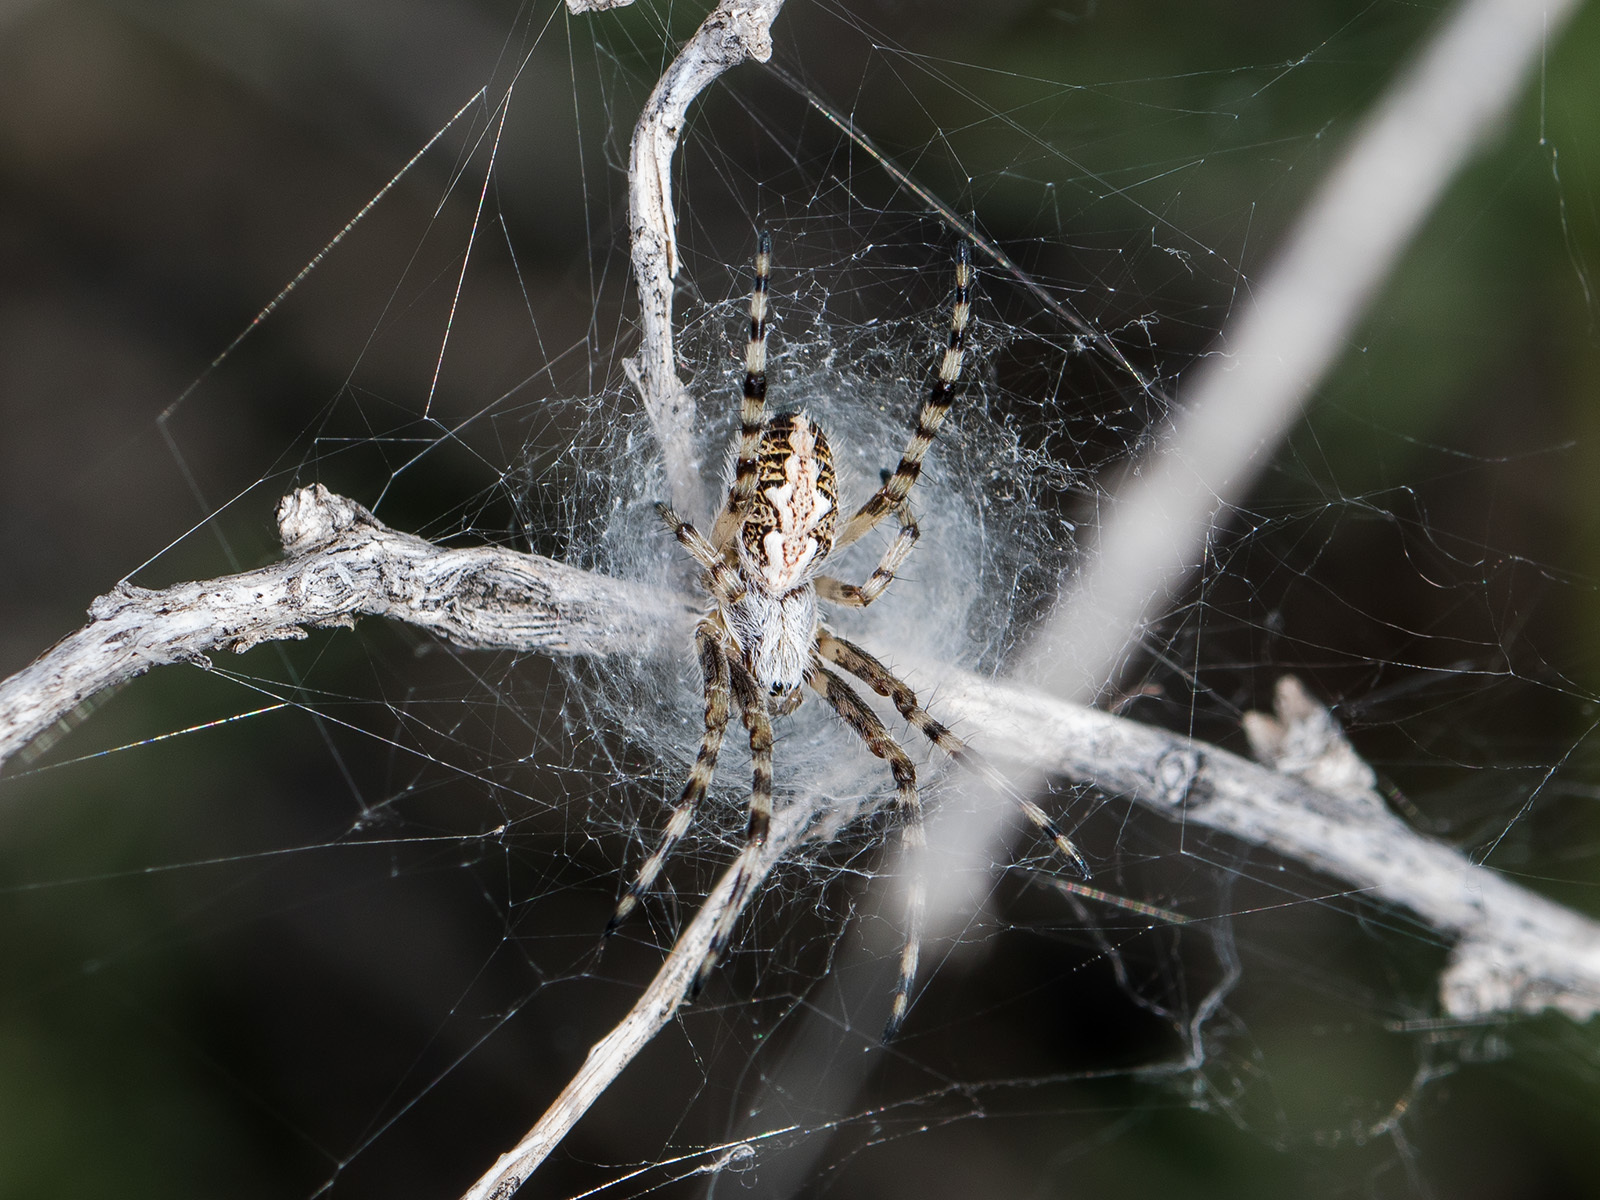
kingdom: Animalia
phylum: Arthropoda
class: Arachnida
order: Araneae
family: Araneidae
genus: Aculepeira
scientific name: Aculepeira armida
